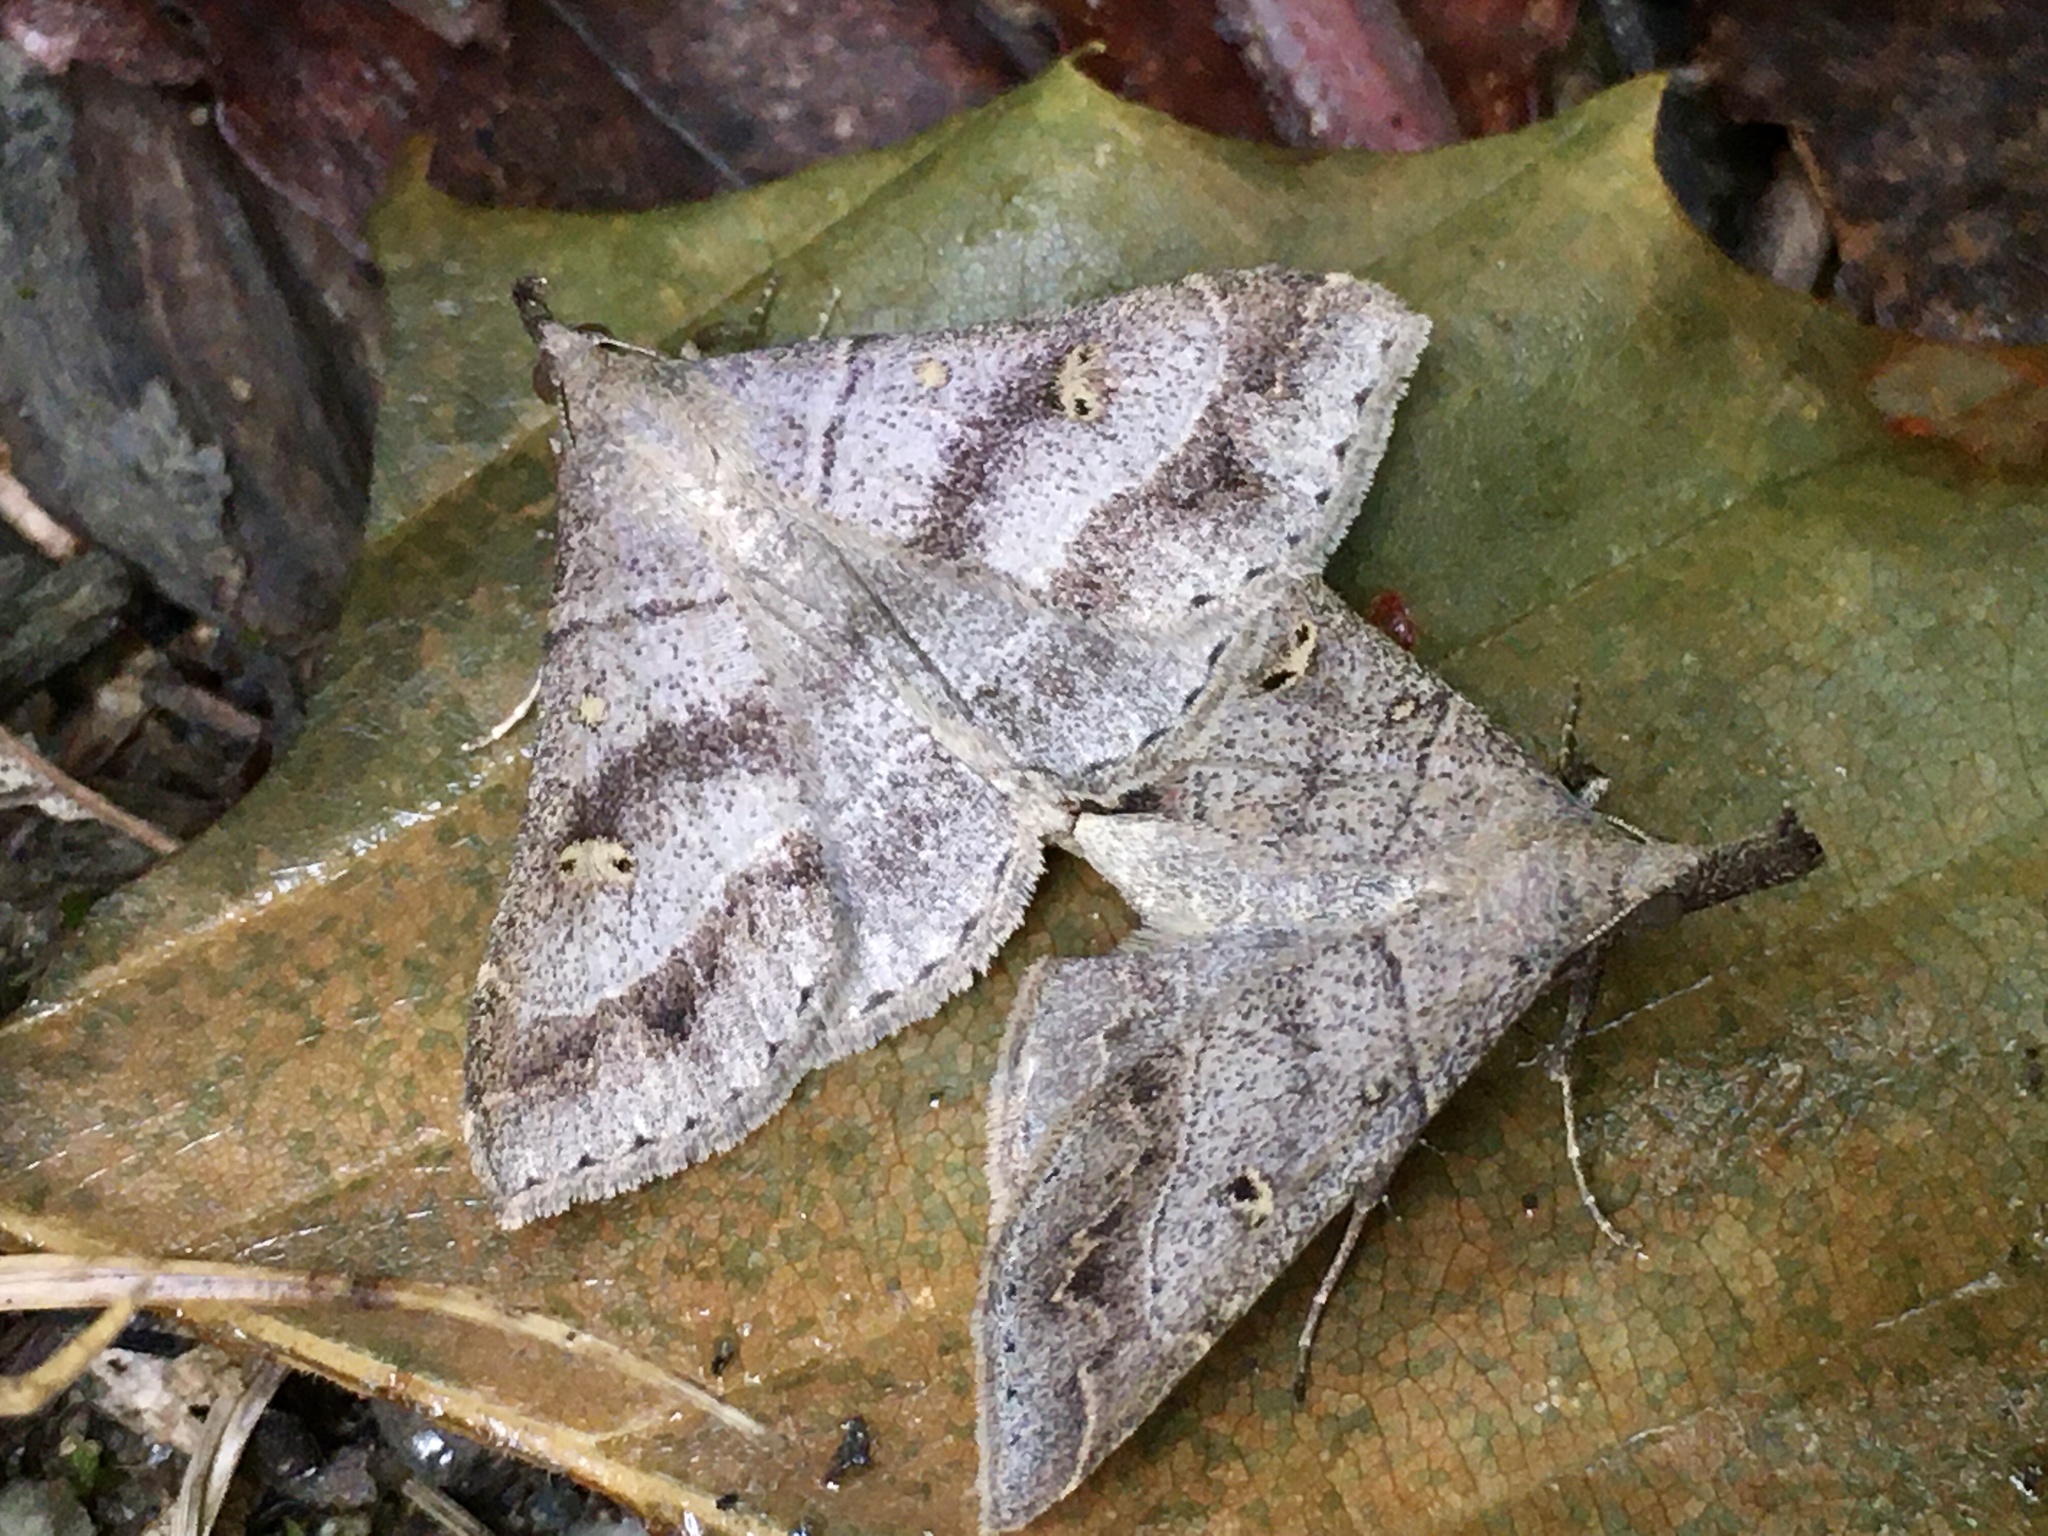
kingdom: Animalia
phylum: Arthropoda
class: Insecta
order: Lepidoptera
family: Erebidae
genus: Renia
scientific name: Renia flavipunctalis
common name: Yellow-spotted renia moth
